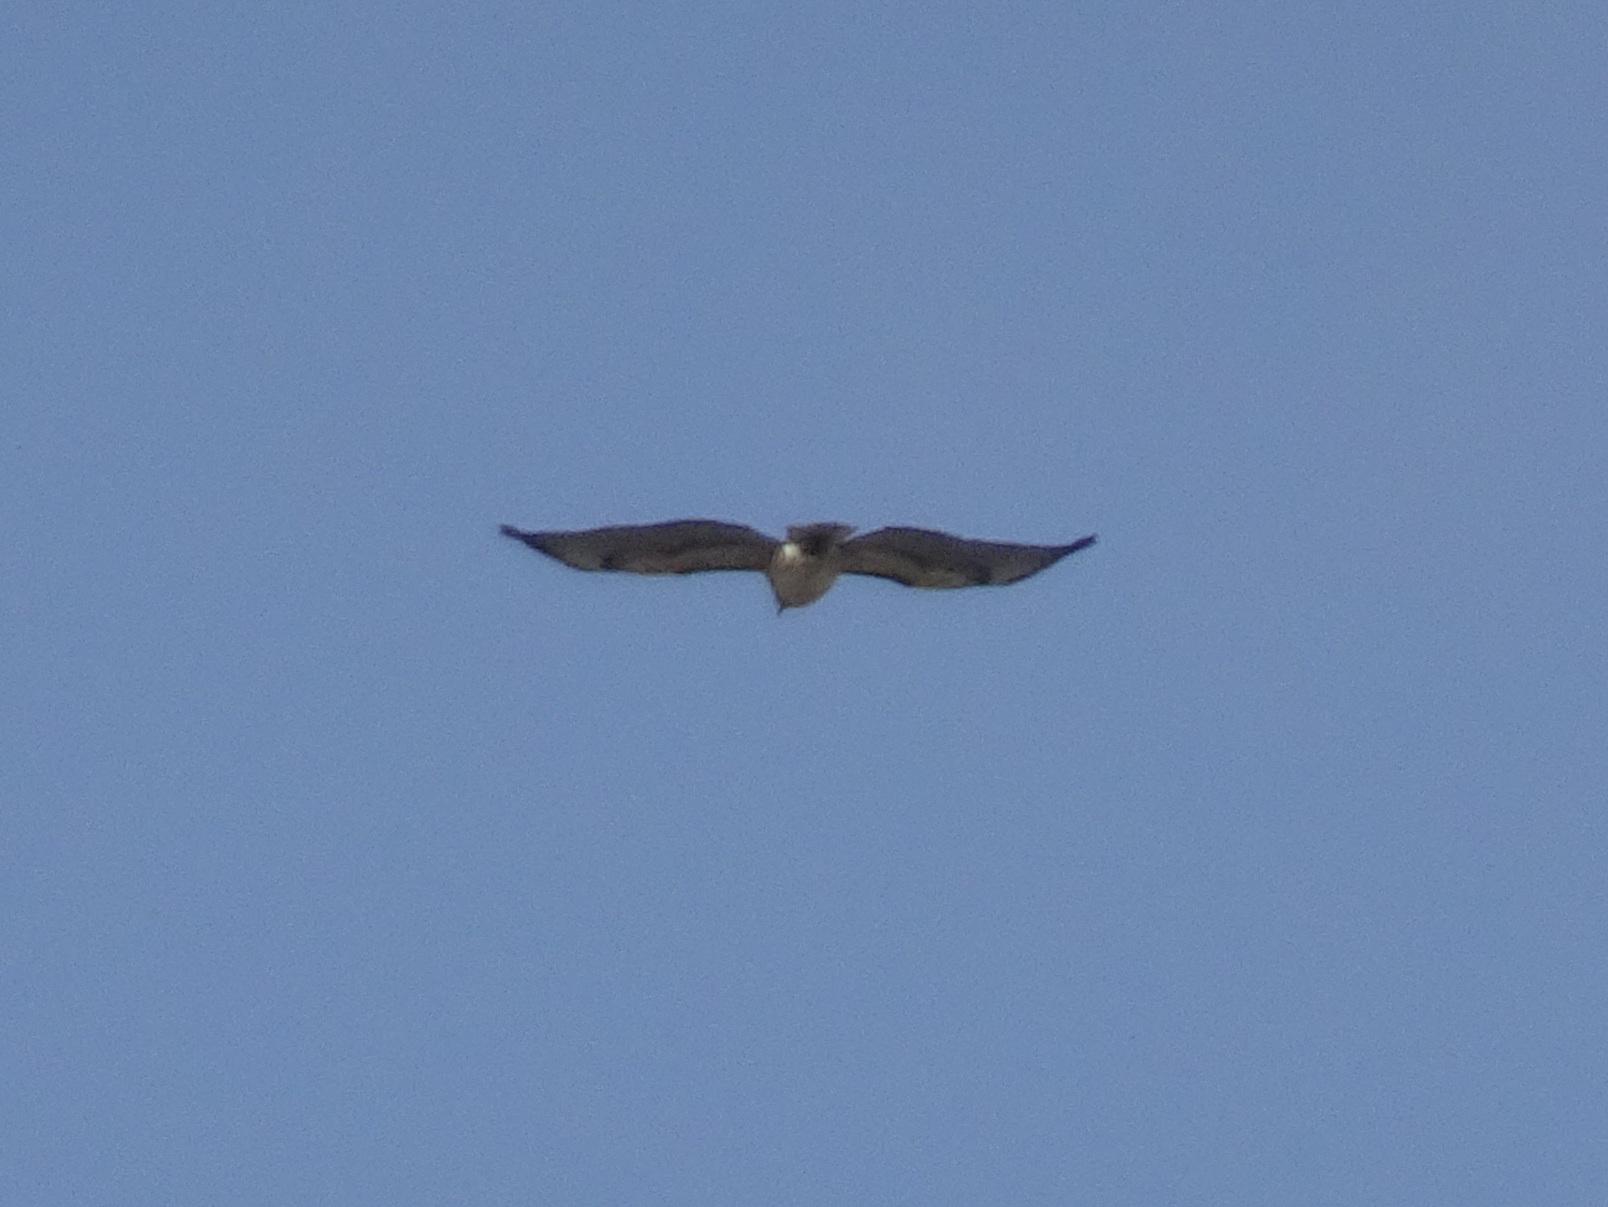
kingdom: Animalia
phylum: Chordata
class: Aves
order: Accipitriformes
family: Accipitridae
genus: Buteo
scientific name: Buteo jamaicensis
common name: Red-tailed hawk
